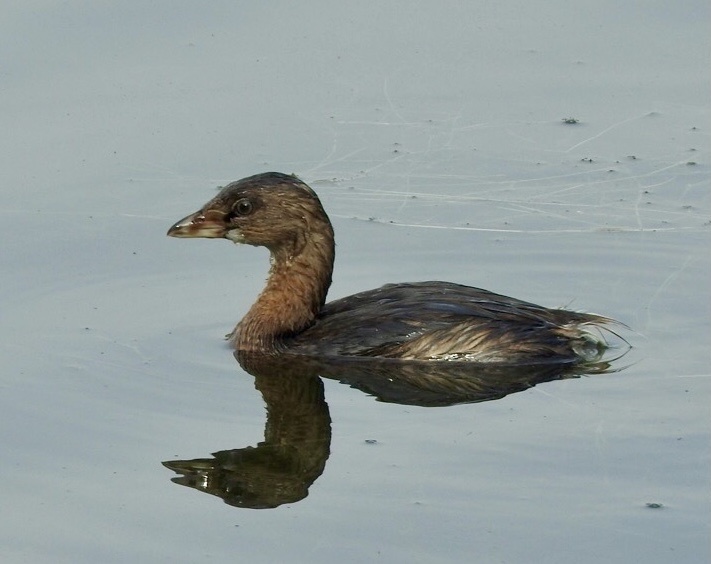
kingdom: Animalia
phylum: Chordata
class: Aves
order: Podicipediformes
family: Podicipedidae
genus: Podilymbus
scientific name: Podilymbus podiceps
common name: Pied-billed grebe
